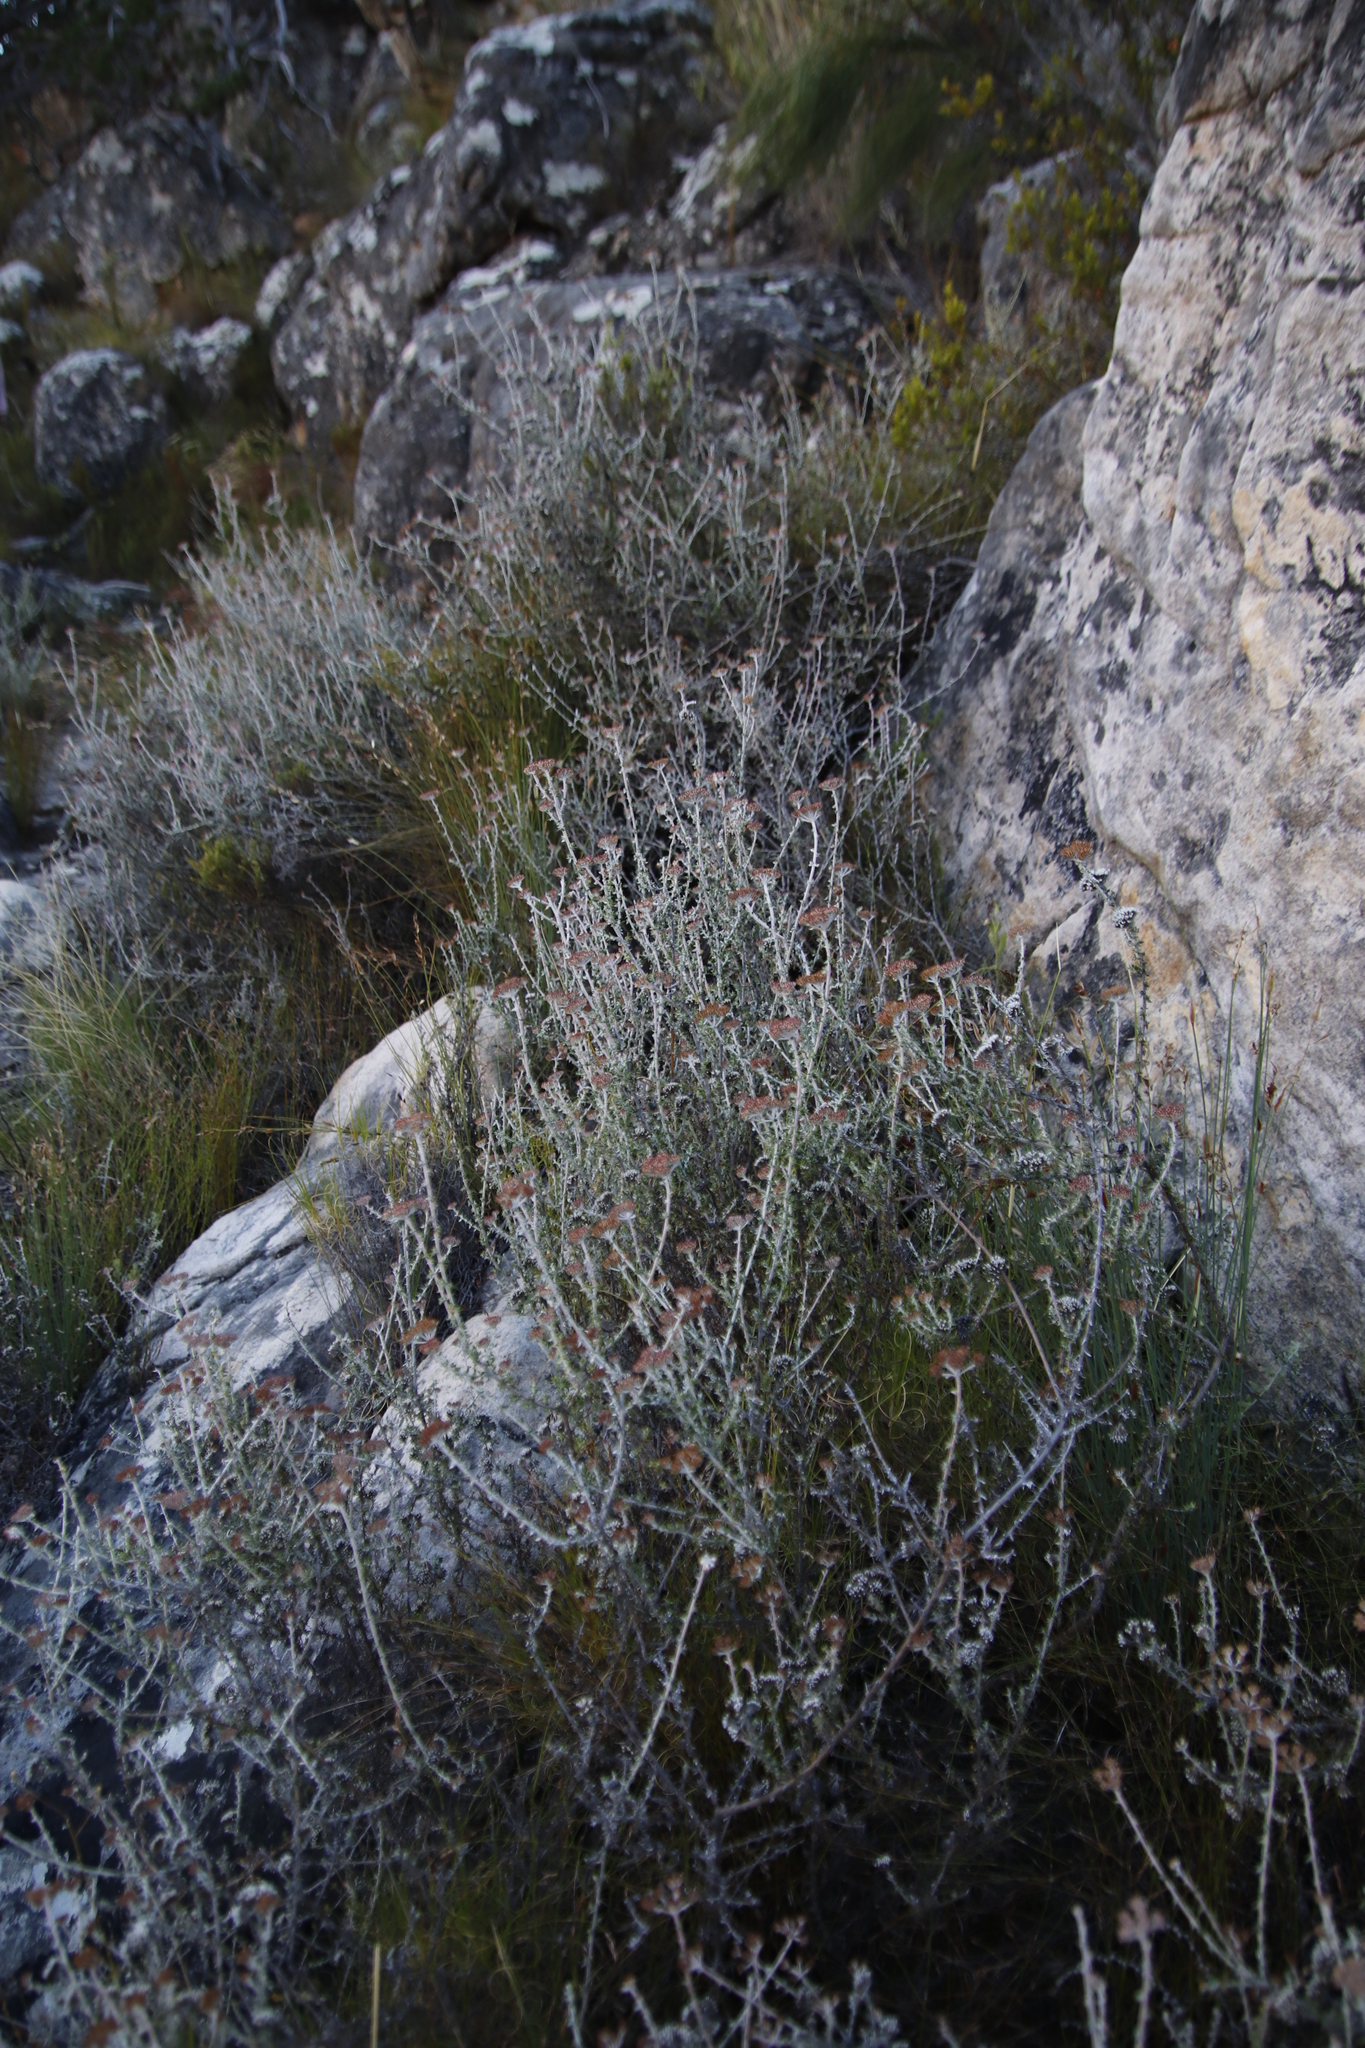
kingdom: Plantae
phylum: Tracheophyta
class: Magnoliopsida
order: Asterales
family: Asteraceae
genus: Metalasia
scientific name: Metalasia densa
